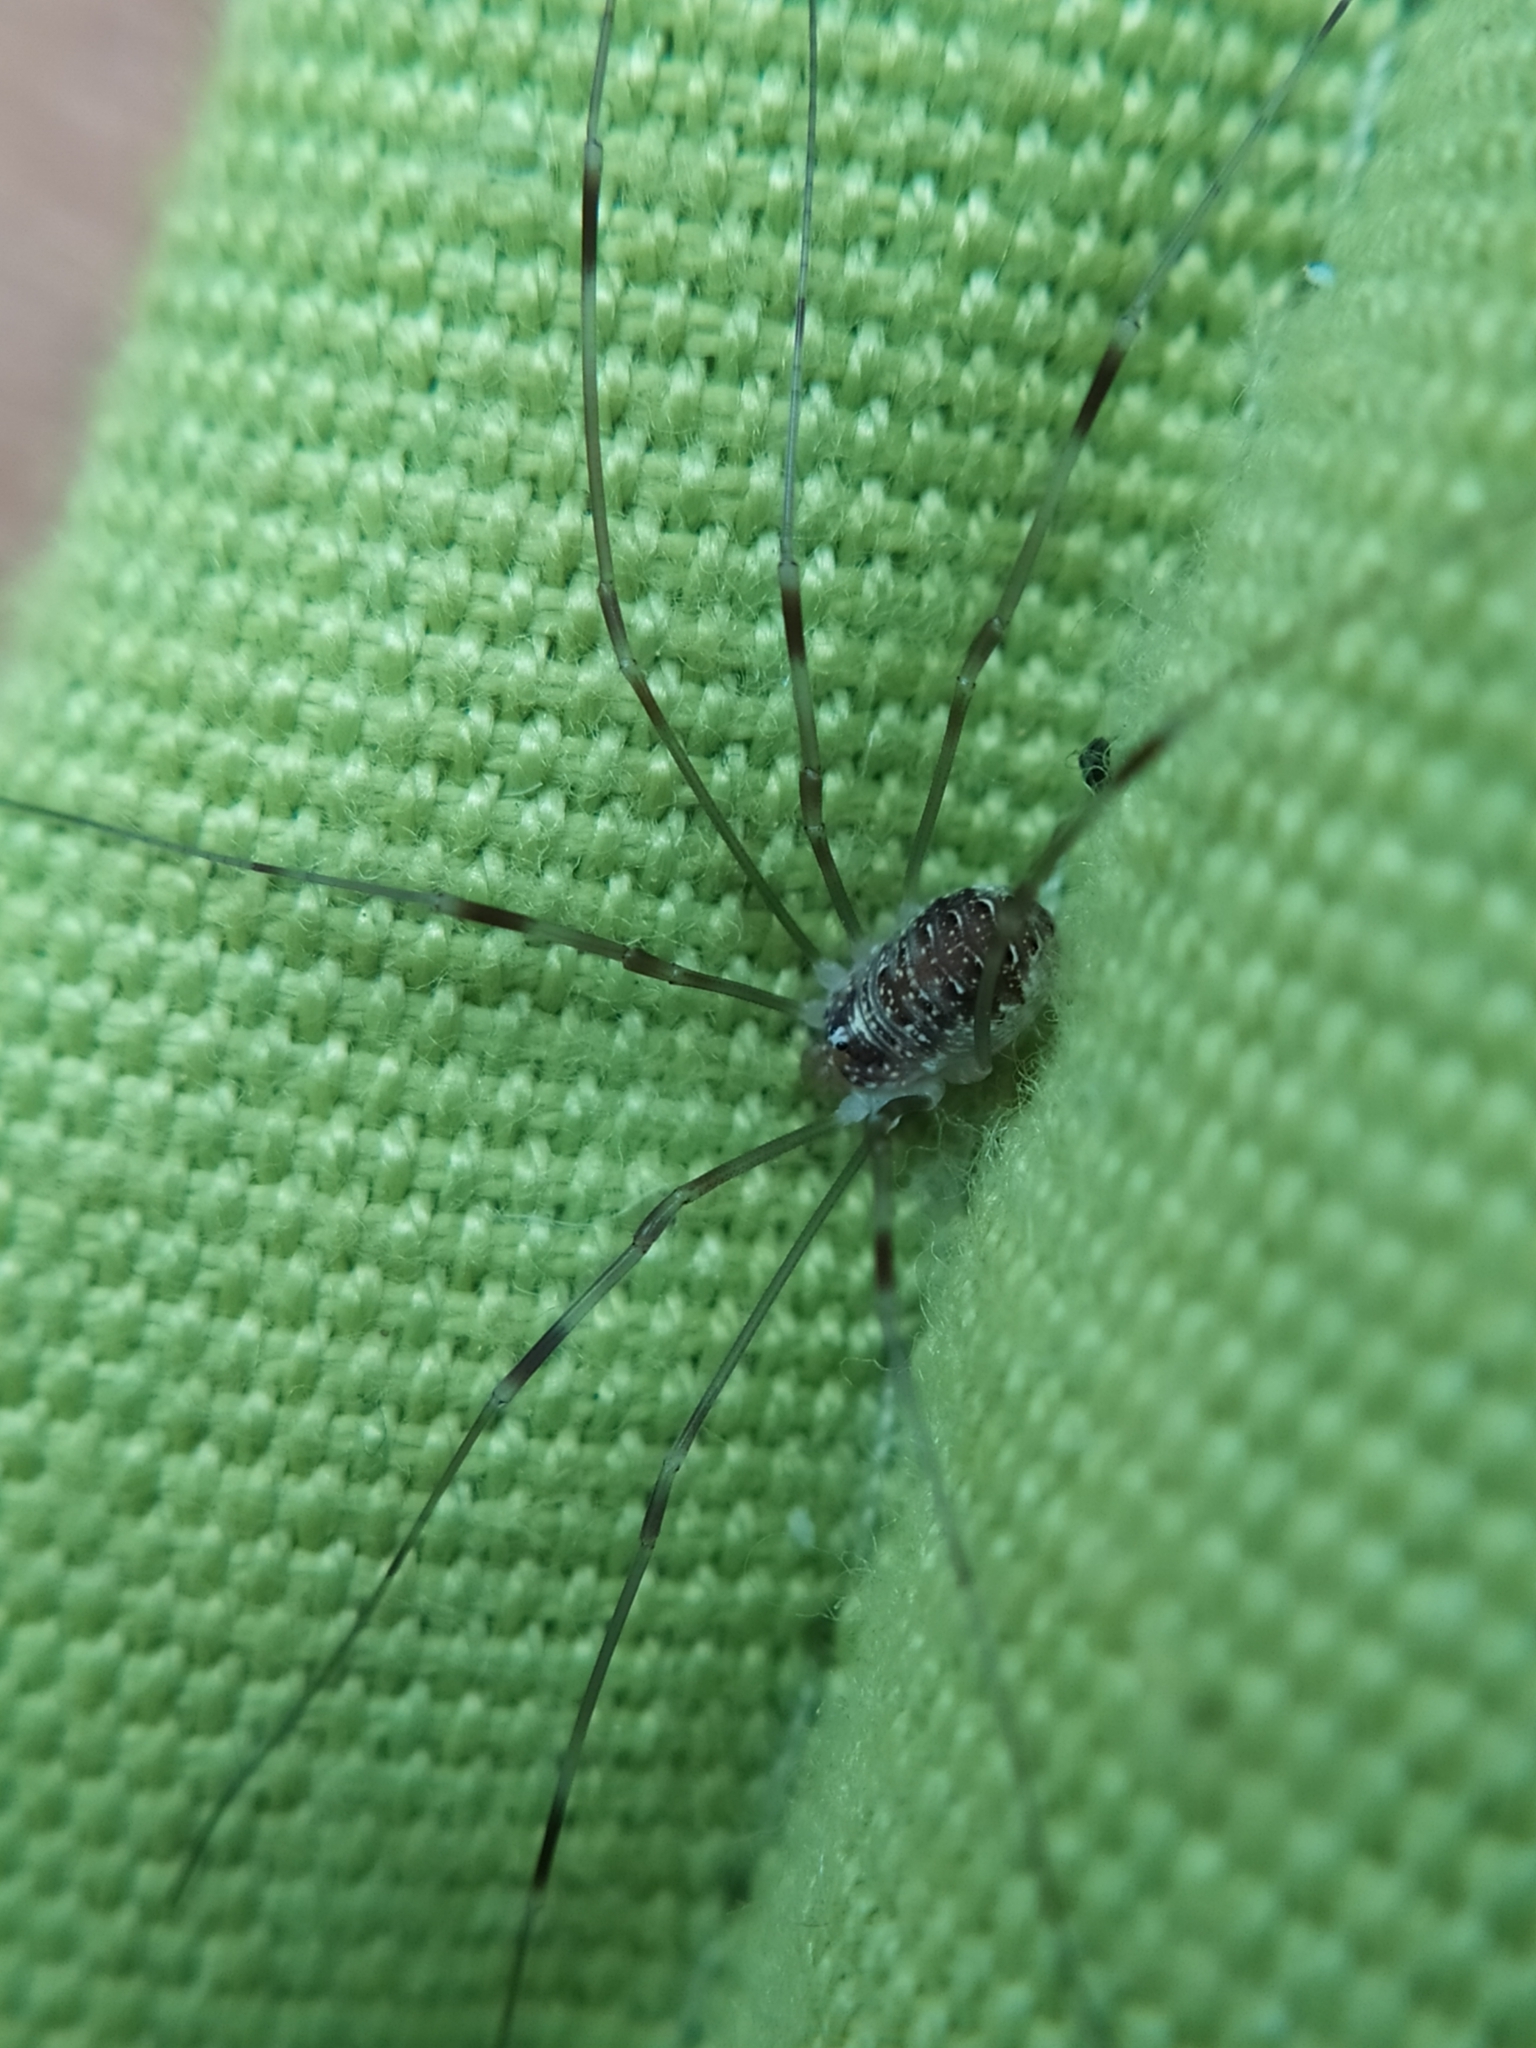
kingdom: Animalia
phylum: Arthropoda
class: Arachnida
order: Opiliones
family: Phalangiidae
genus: Opilio
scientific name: Opilio canestrinii
